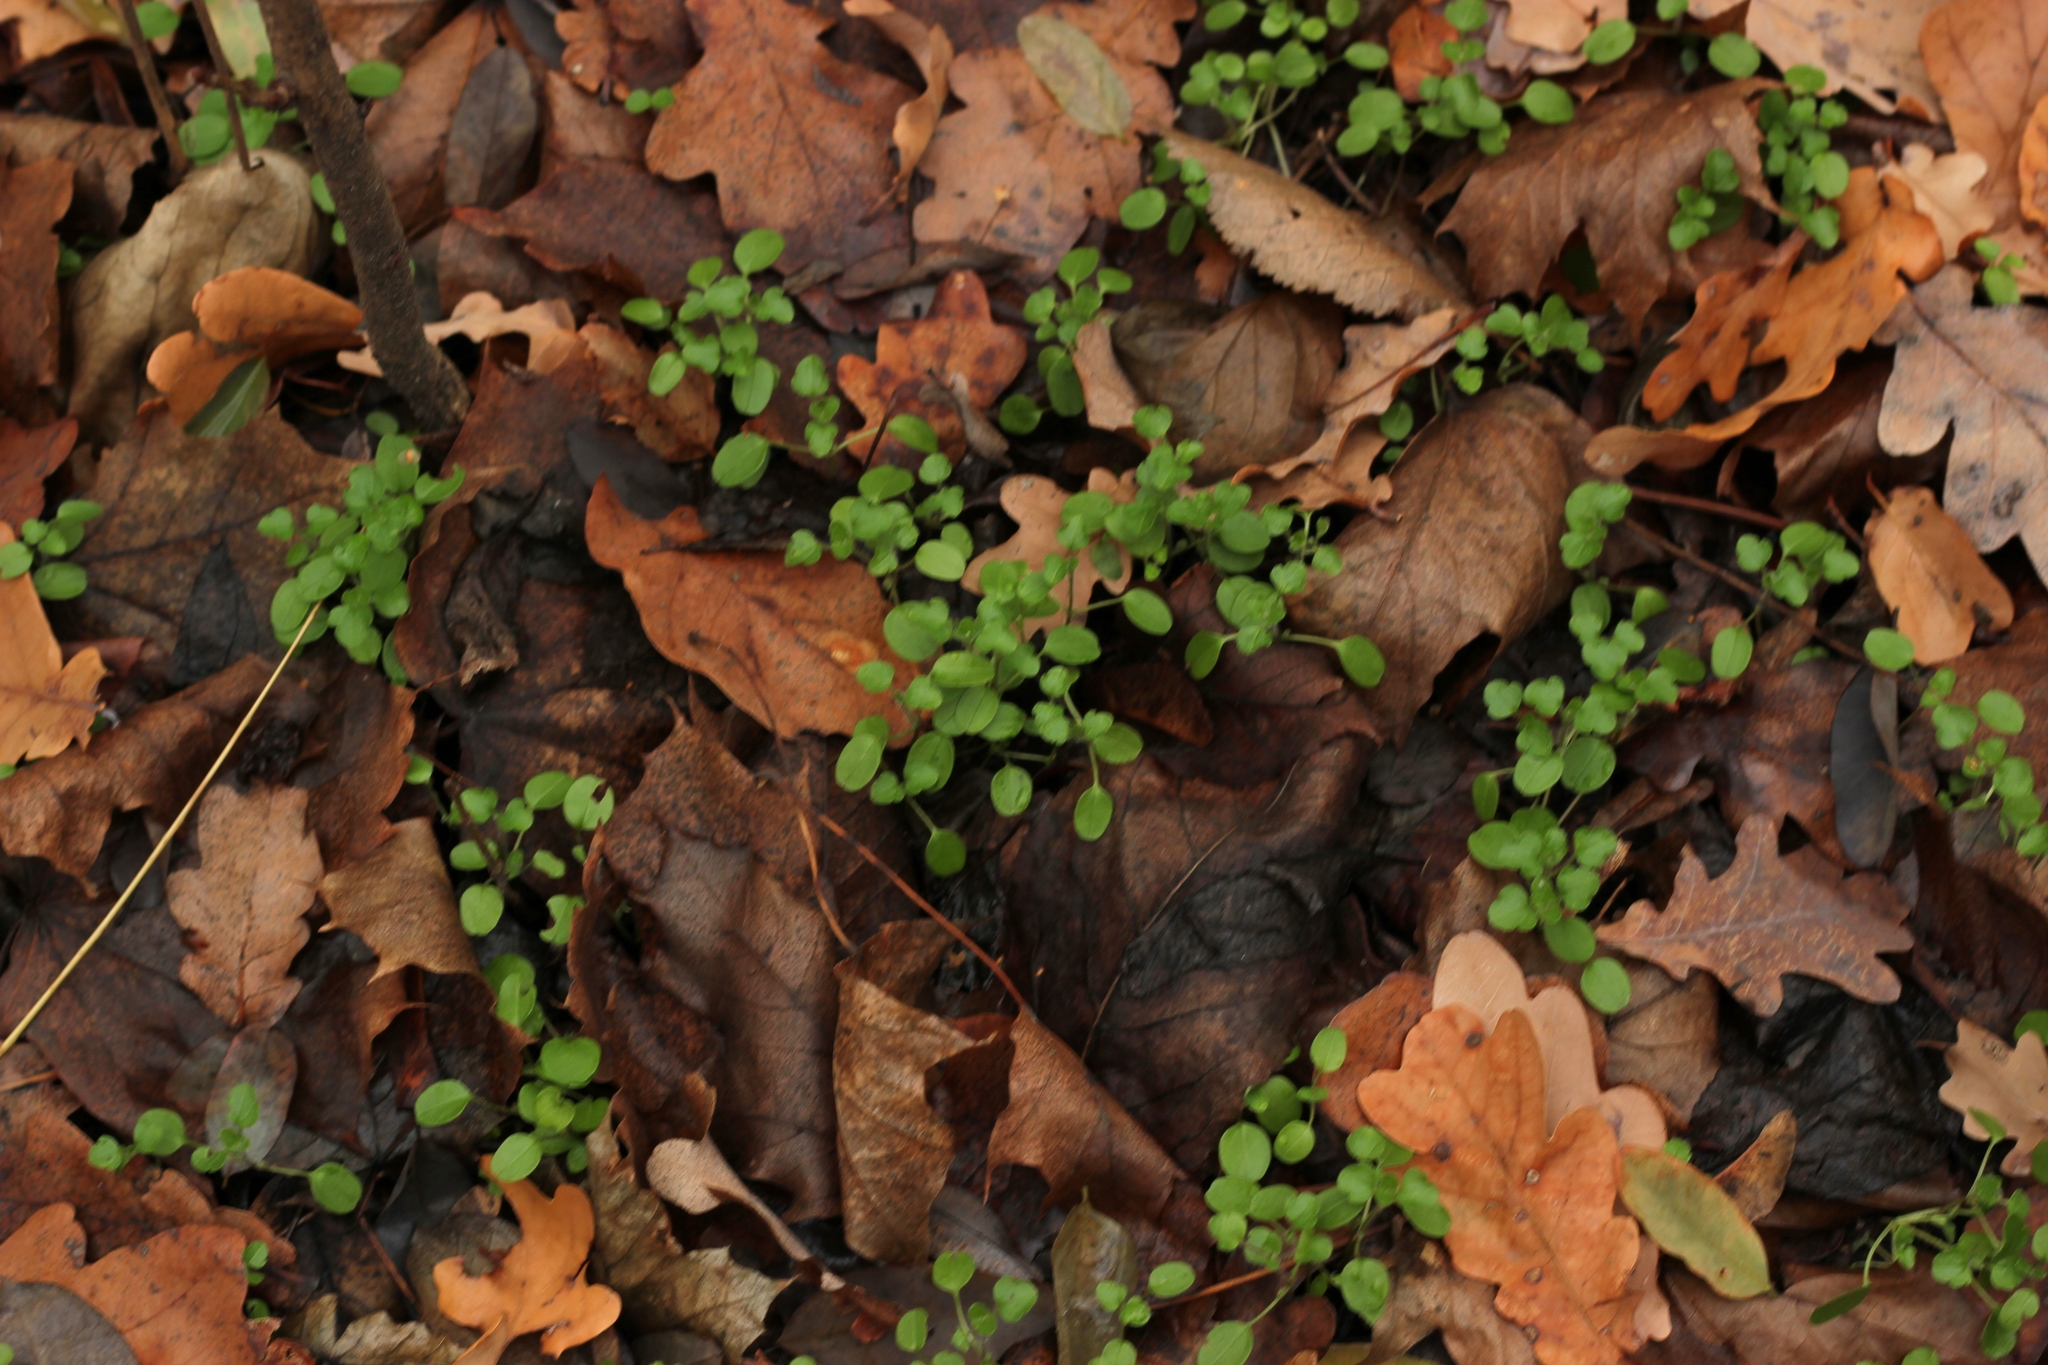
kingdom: Plantae
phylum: Tracheophyta
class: Magnoliopsida
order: Caryophyllales
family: Caryophyllaceae
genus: Stellaria
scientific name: Stellaria media
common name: Common chickweed
